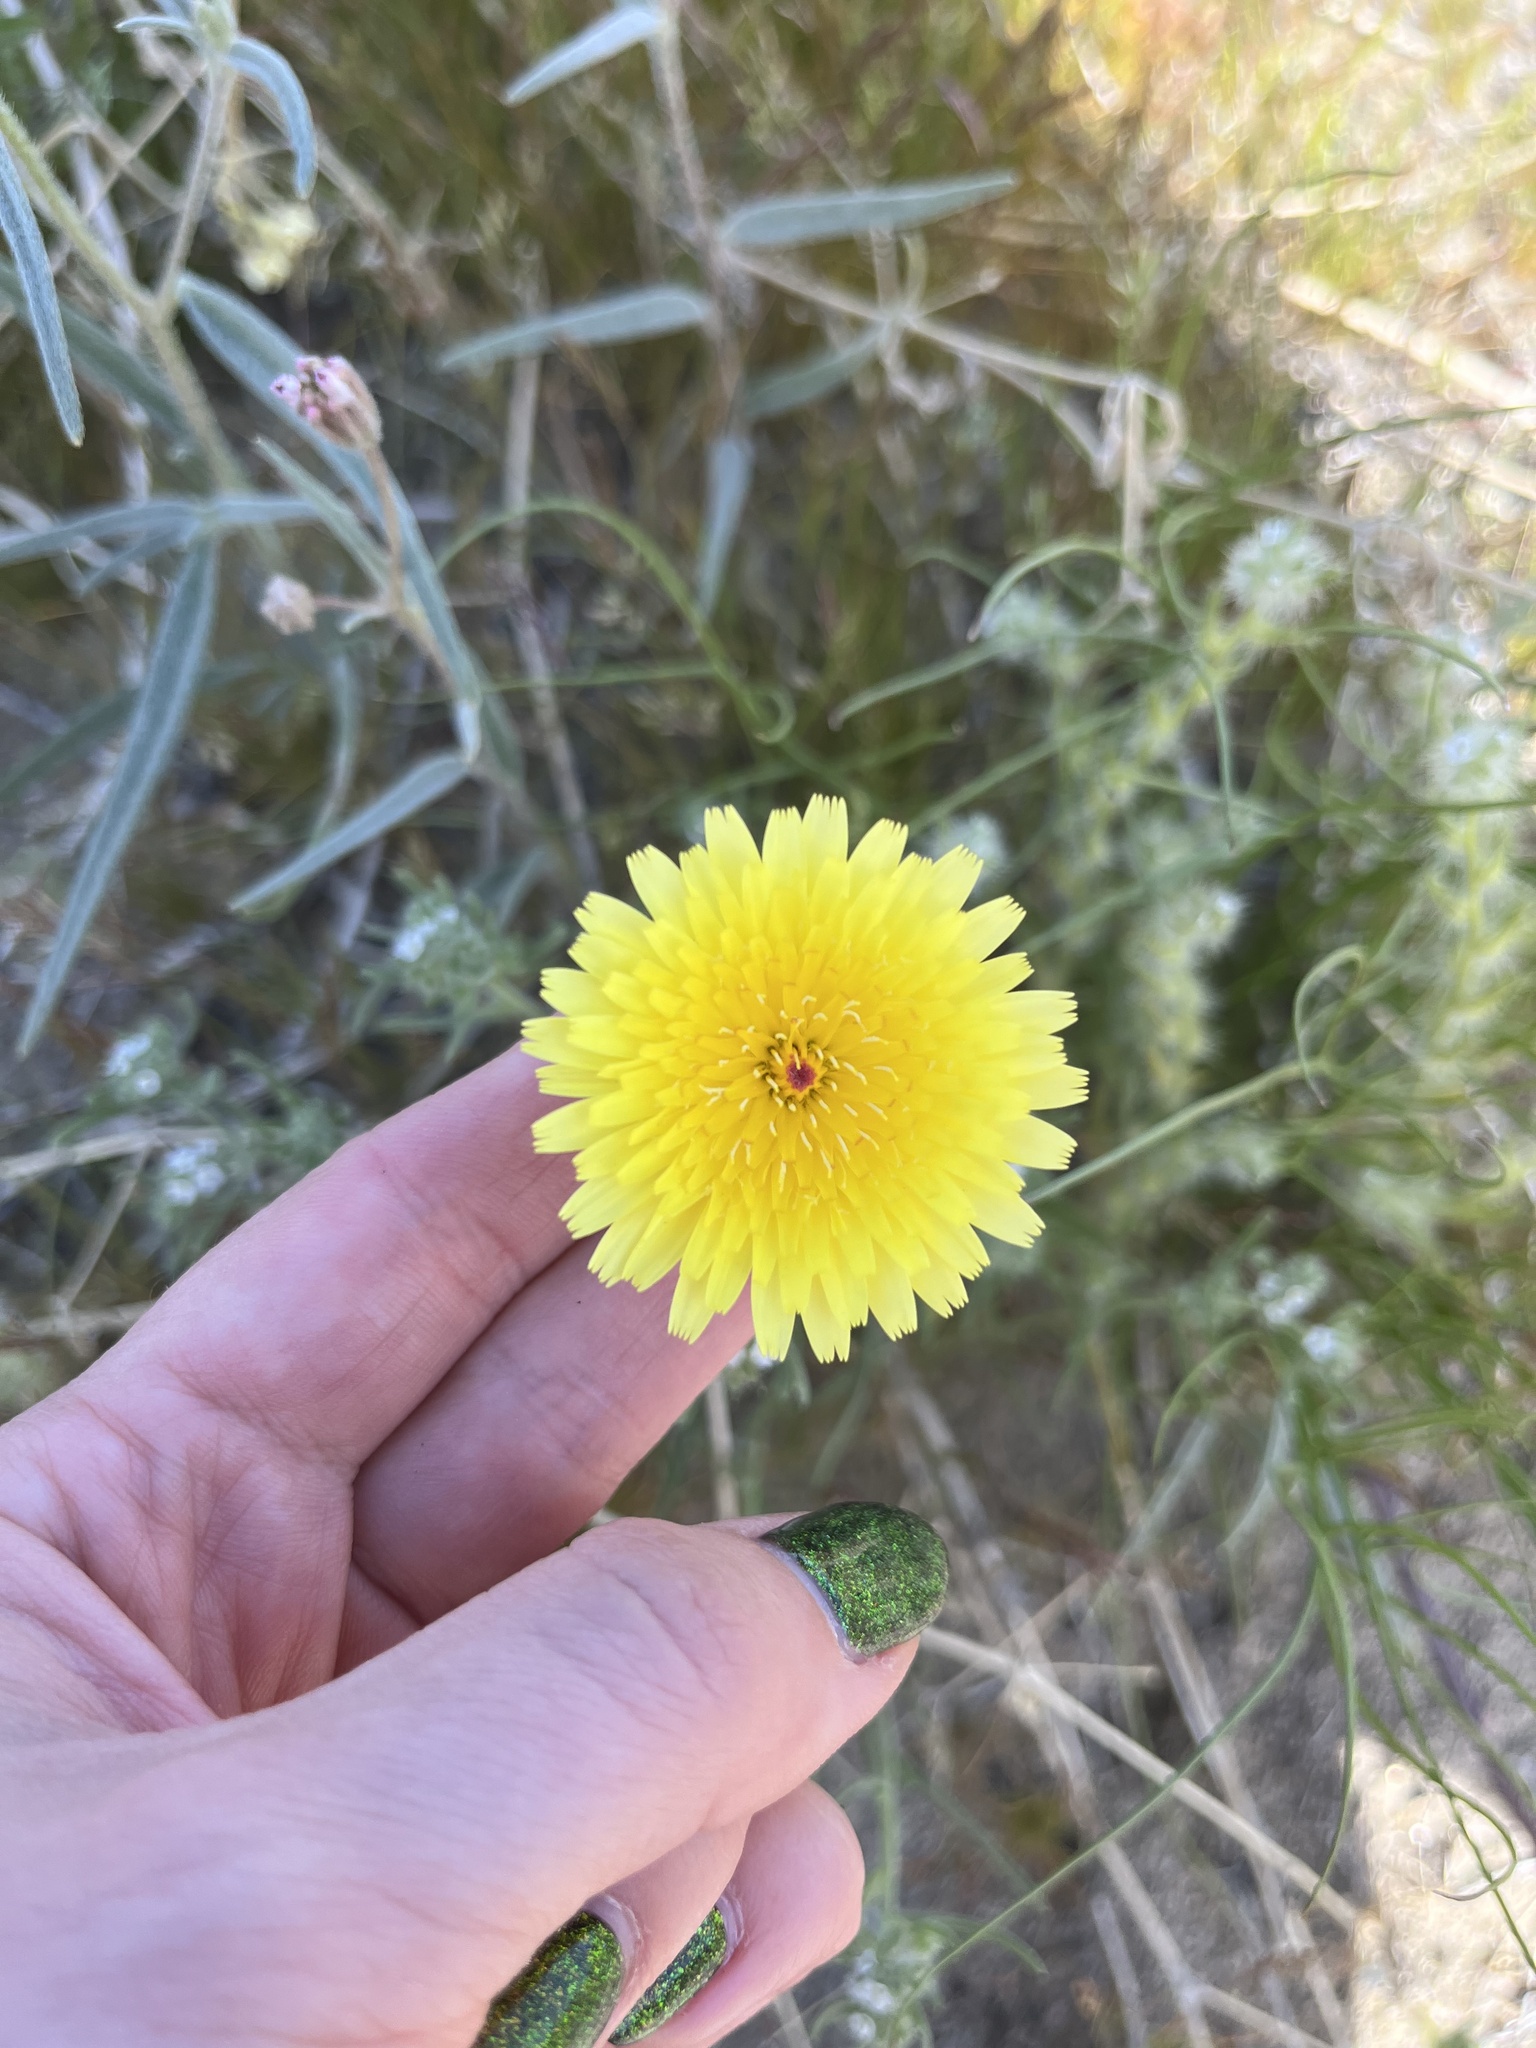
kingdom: Plantae
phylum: Tracheophyta
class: Magnoliopsida
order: Asterales
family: Asteraceae
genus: Malacothrix
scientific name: Malacothrix glabrata
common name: Smooth desert-dandelion
